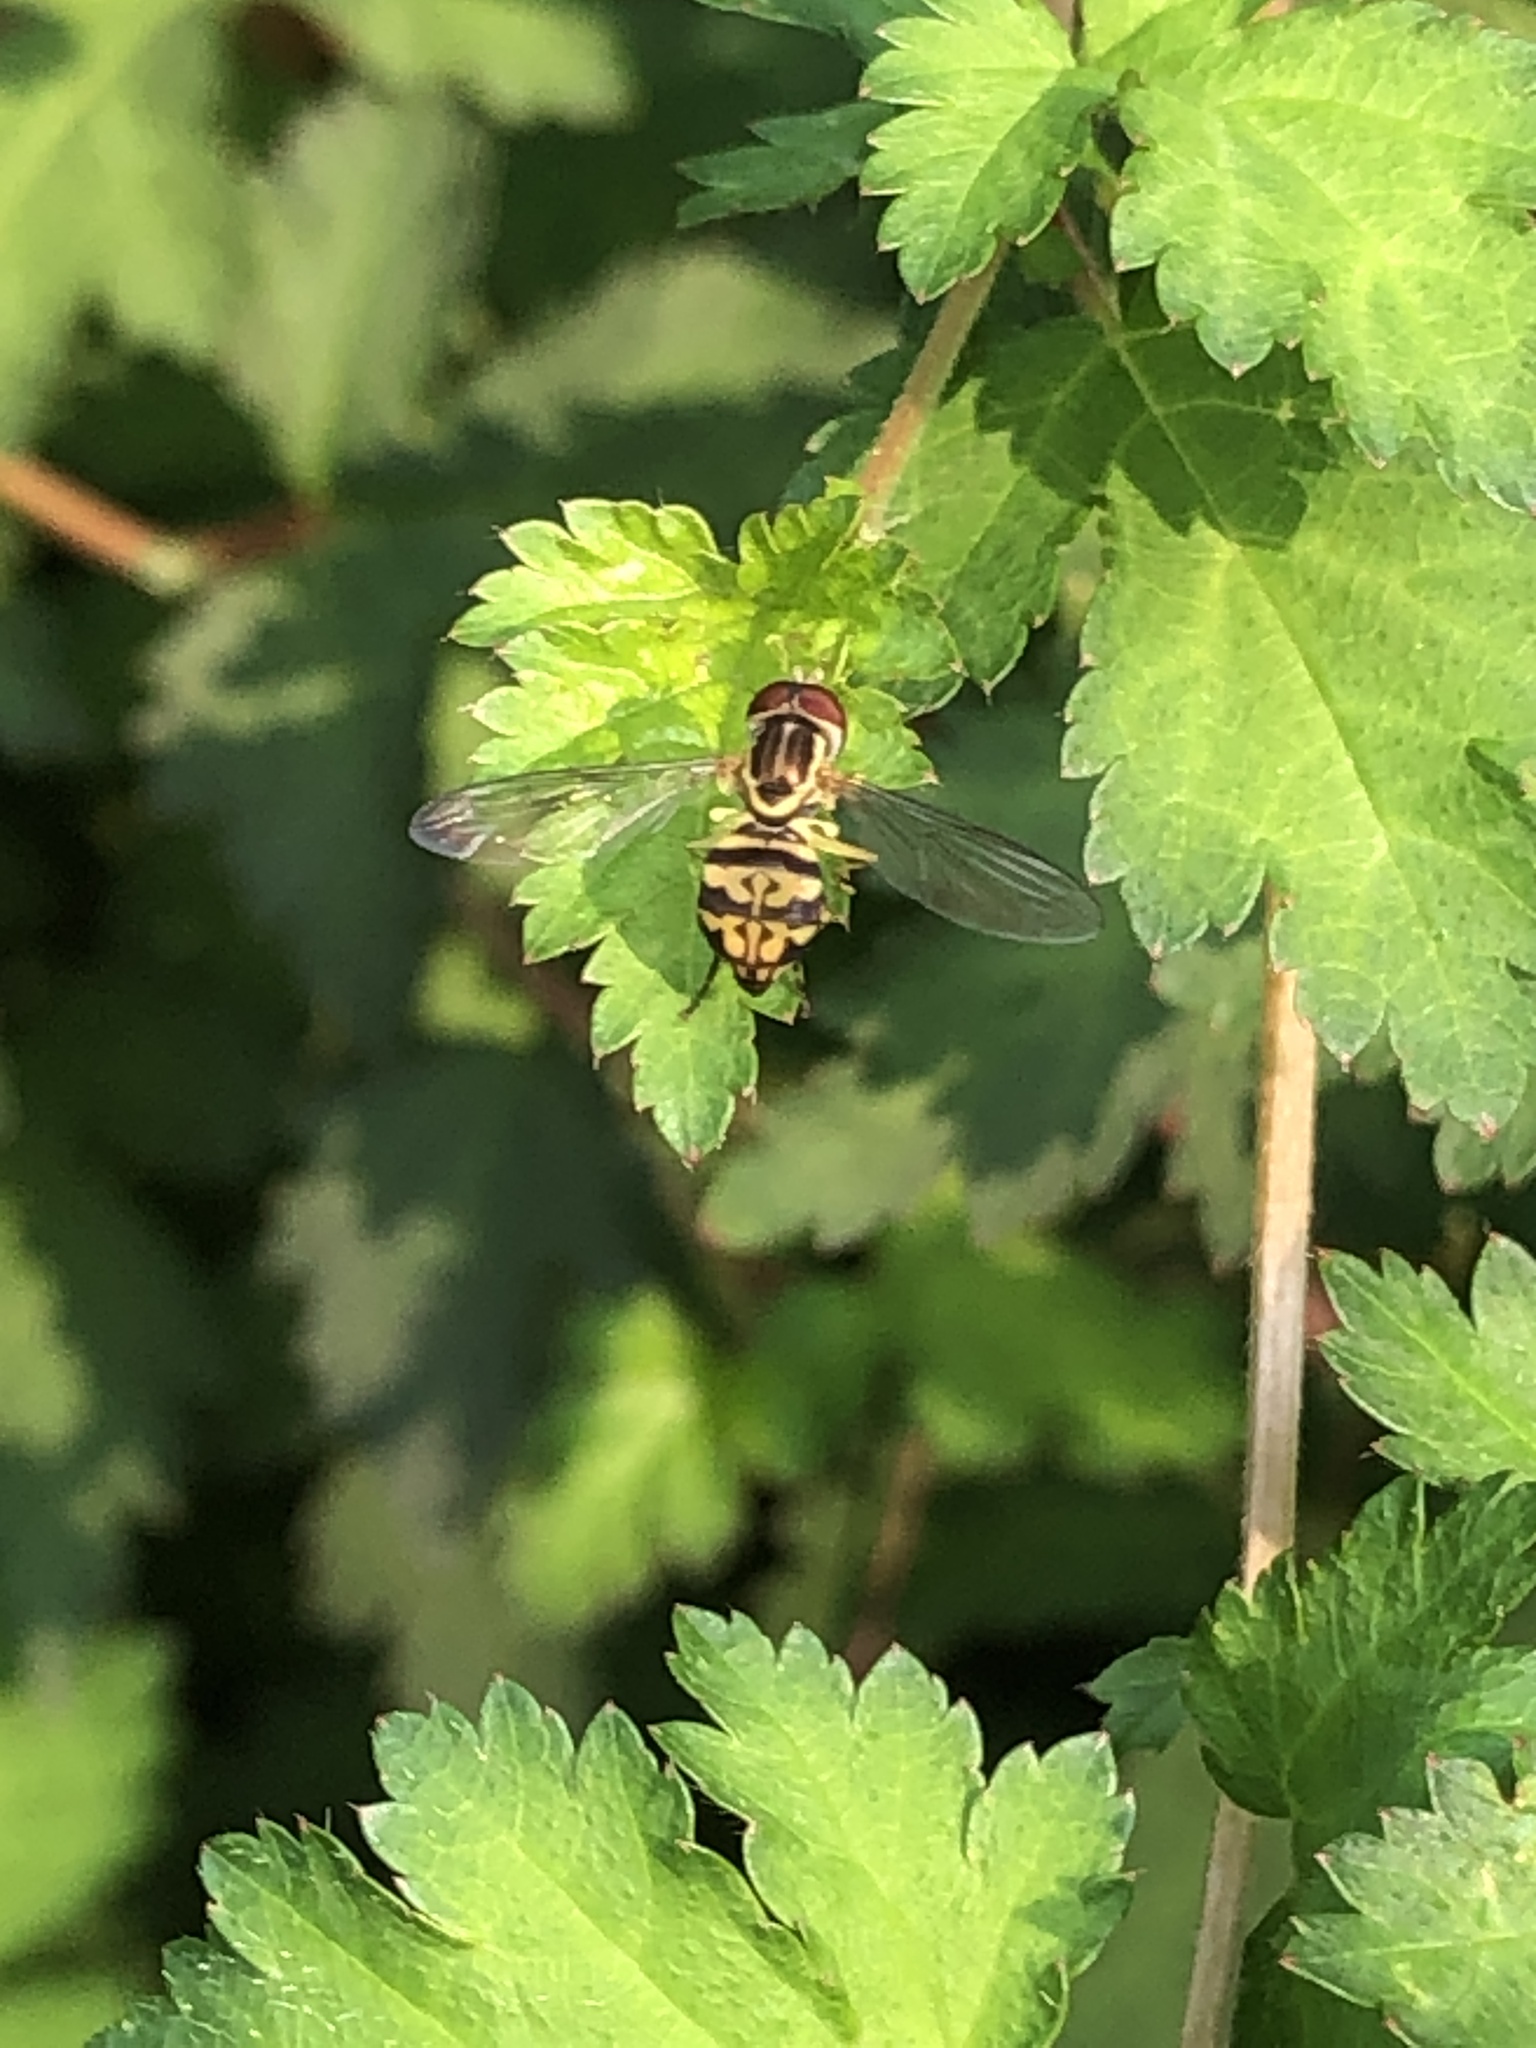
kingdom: Animalia
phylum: Arthropoda
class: Insecta
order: Diptera
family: Syrphidae
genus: Toxomerus
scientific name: Toxomerus geminatus
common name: Eastern calligrapher
